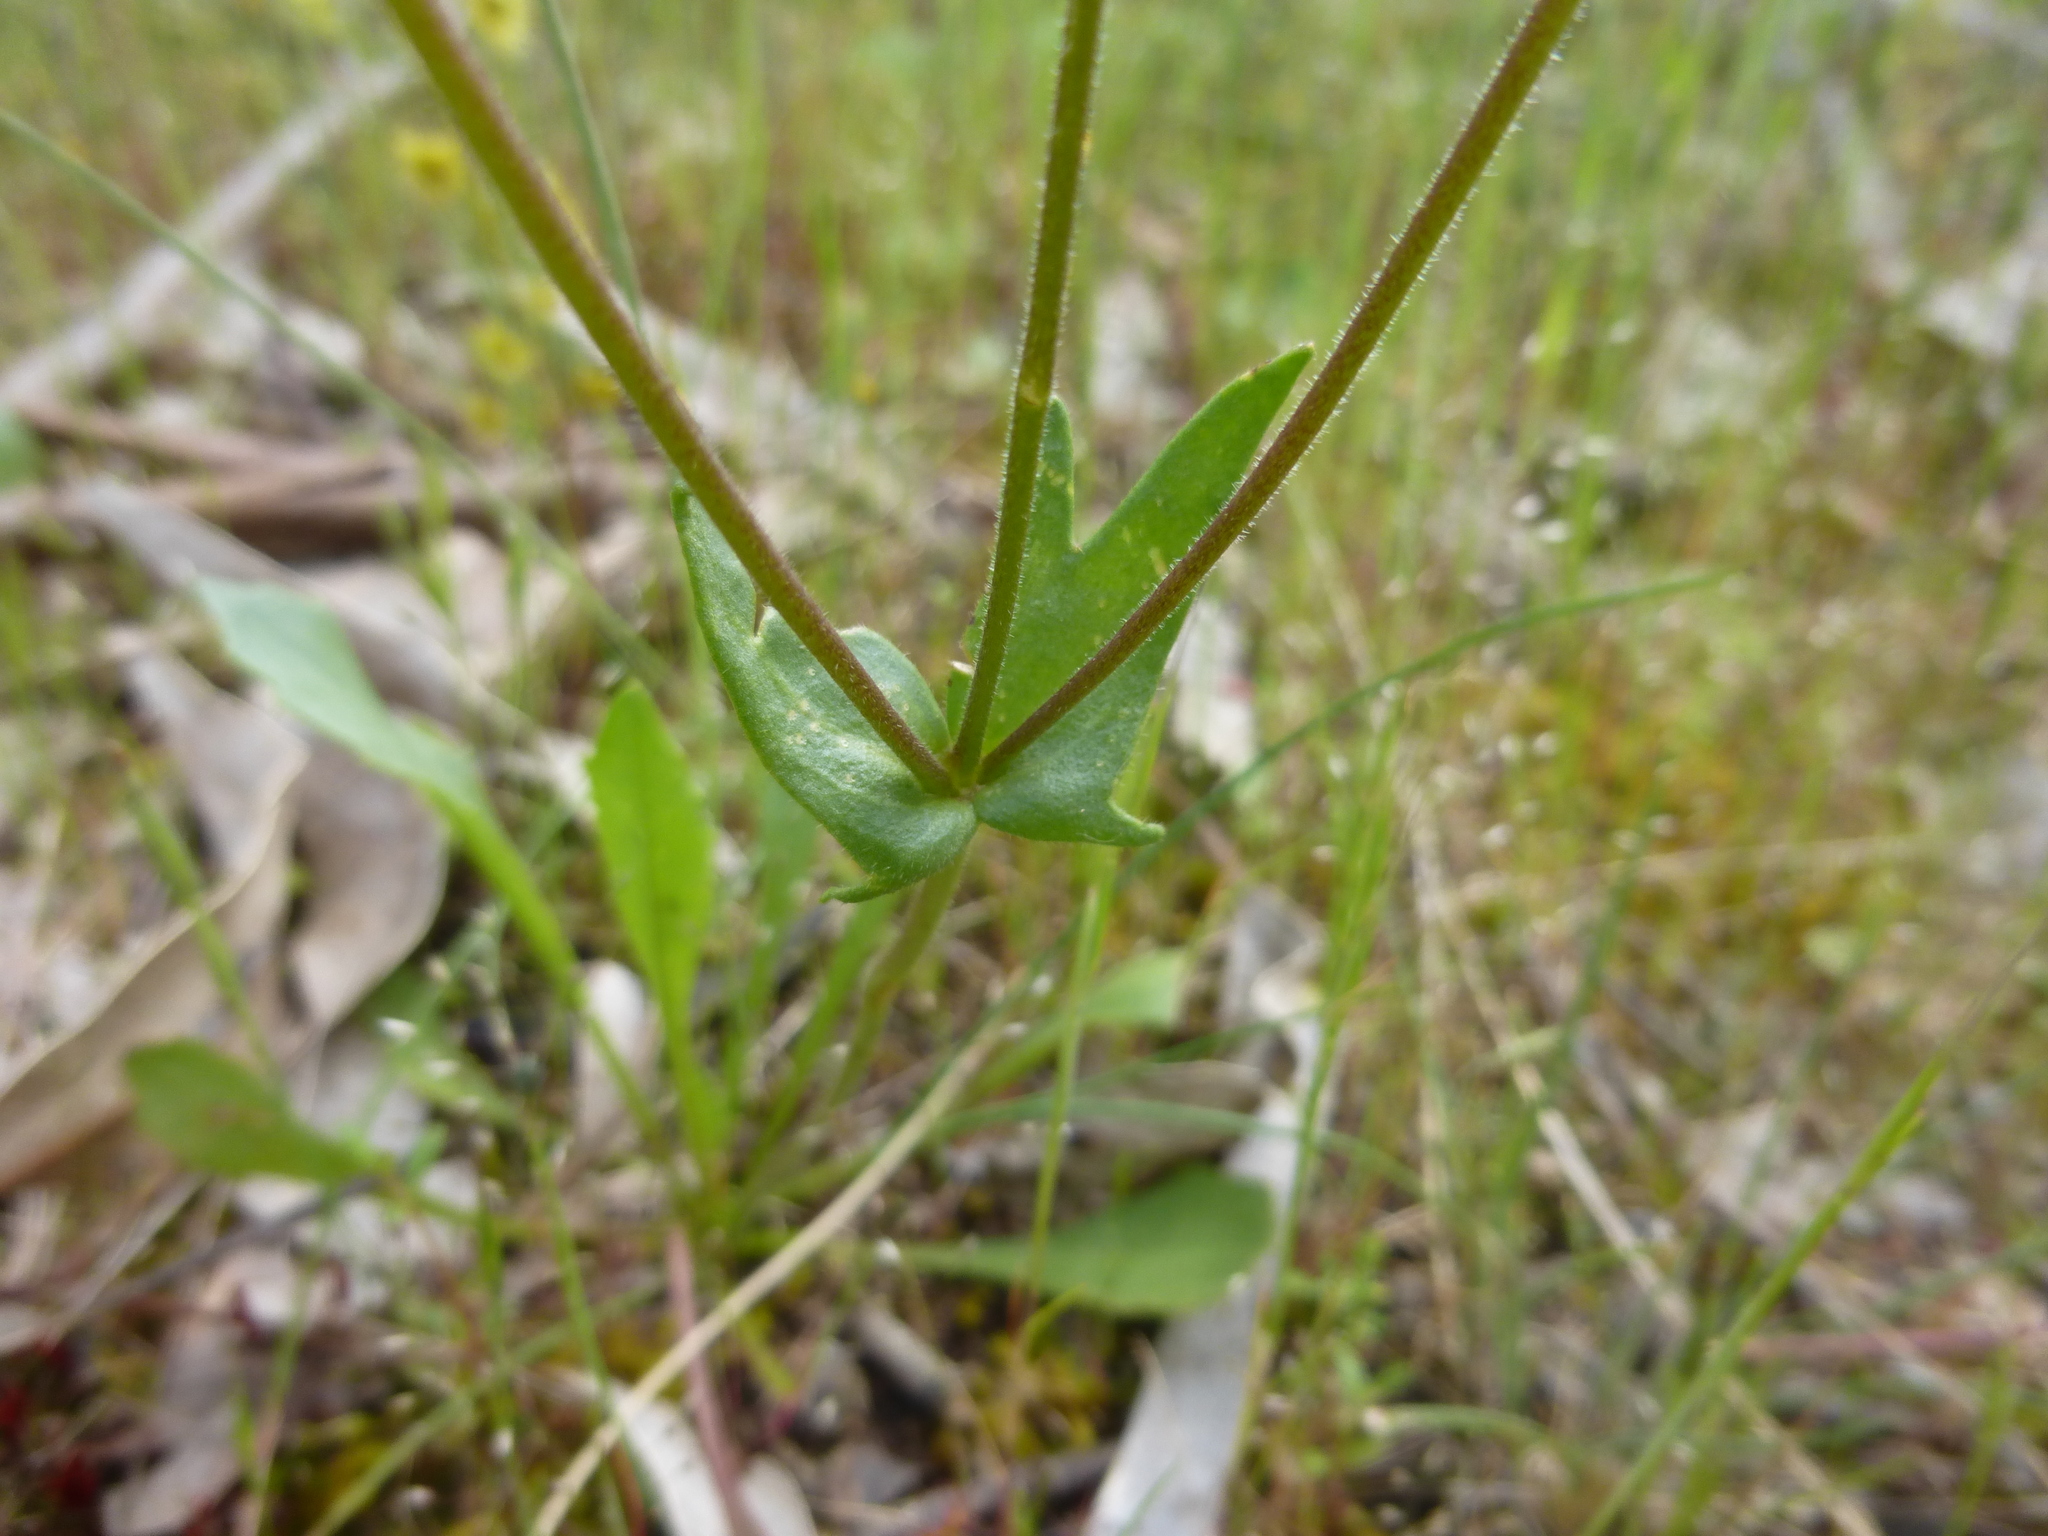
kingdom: Plantae
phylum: Tracheophyta
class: Magnoliopsida
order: Asterales
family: Goodeniaceae
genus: Goodenia
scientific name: Goodenia paradoxa
